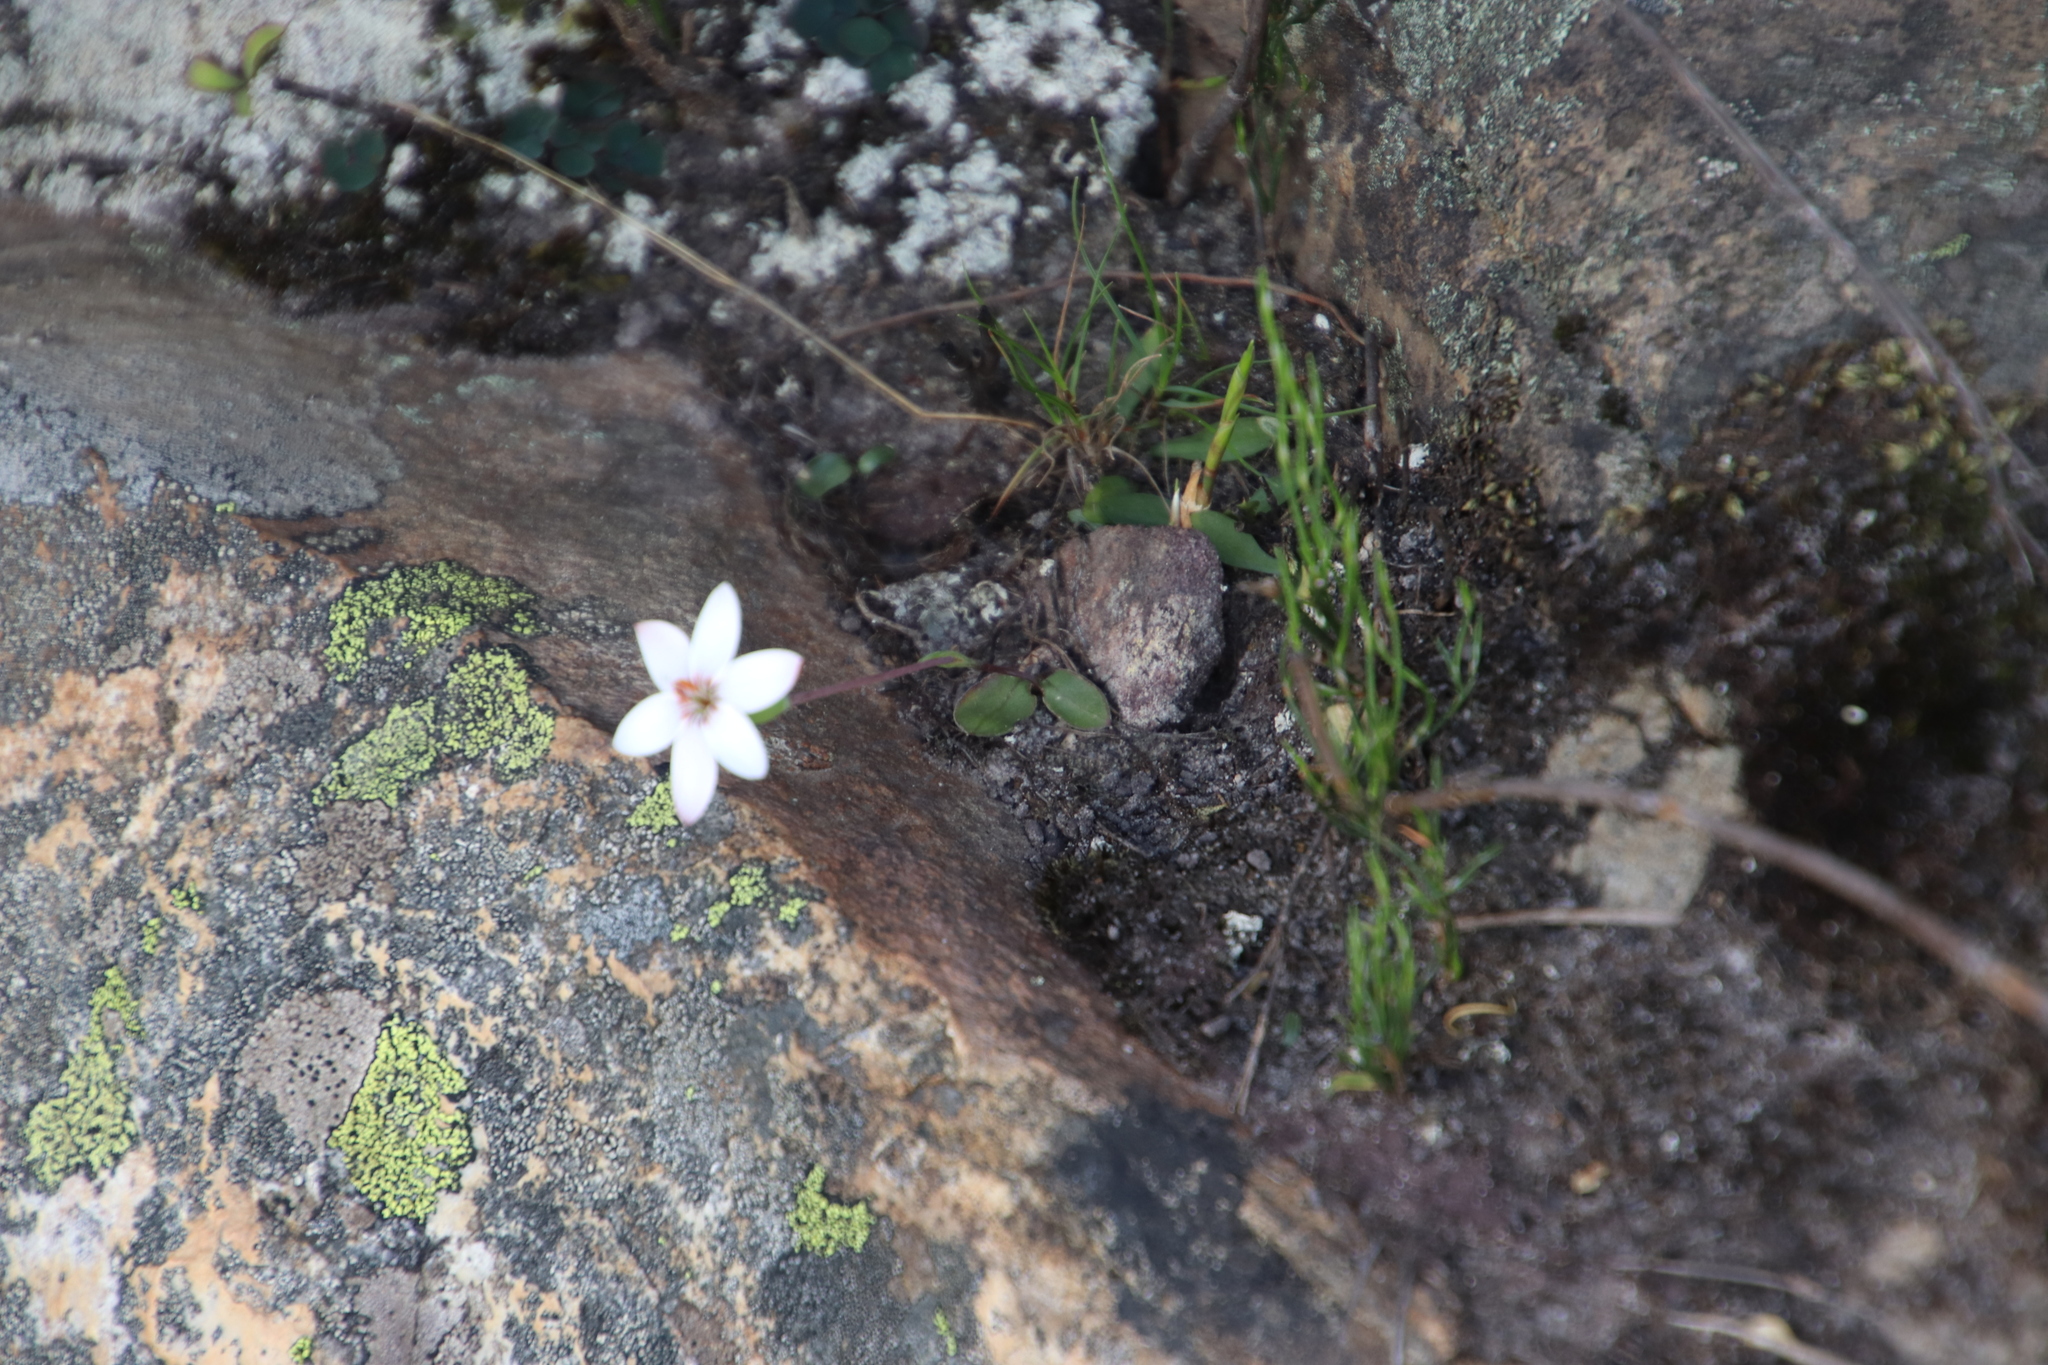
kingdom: Plantae
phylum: Tracheophyta
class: Liliopsida
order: Asparagales
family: Iridaceae
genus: Geissorhiza
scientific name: Geissorhiza ovata
